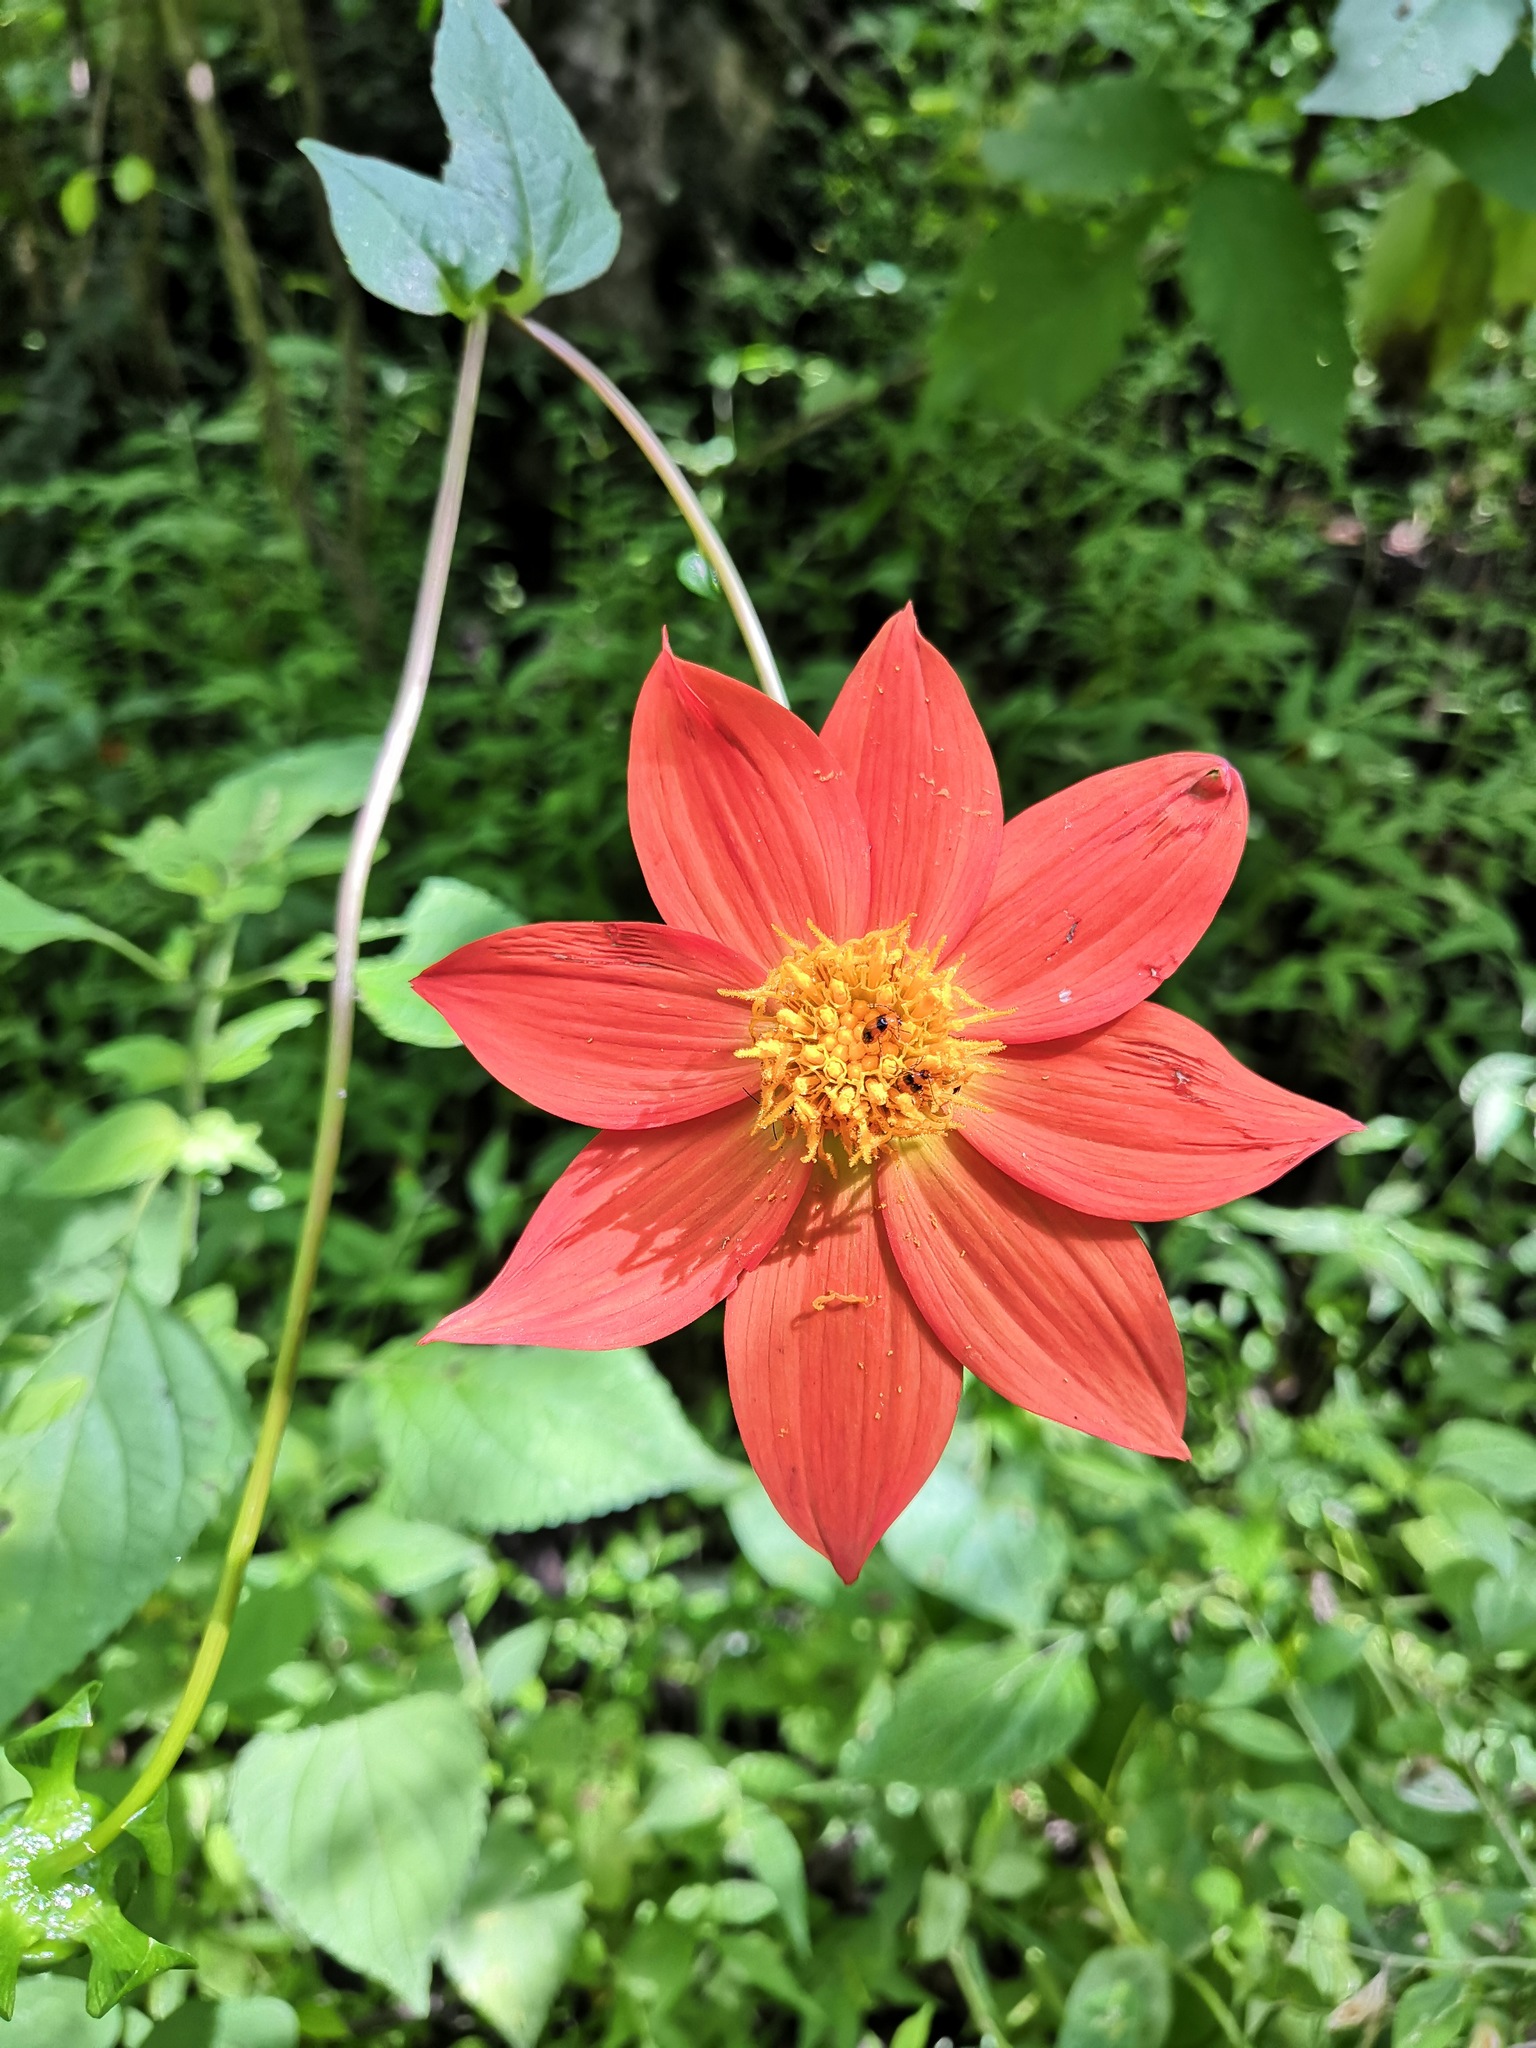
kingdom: Plantae
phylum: Tracheophyta
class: Magnoliopsida
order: Asterales
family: Asteraceae
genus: Dahlia
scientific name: Dahlia coccinea
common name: Red dahlia
